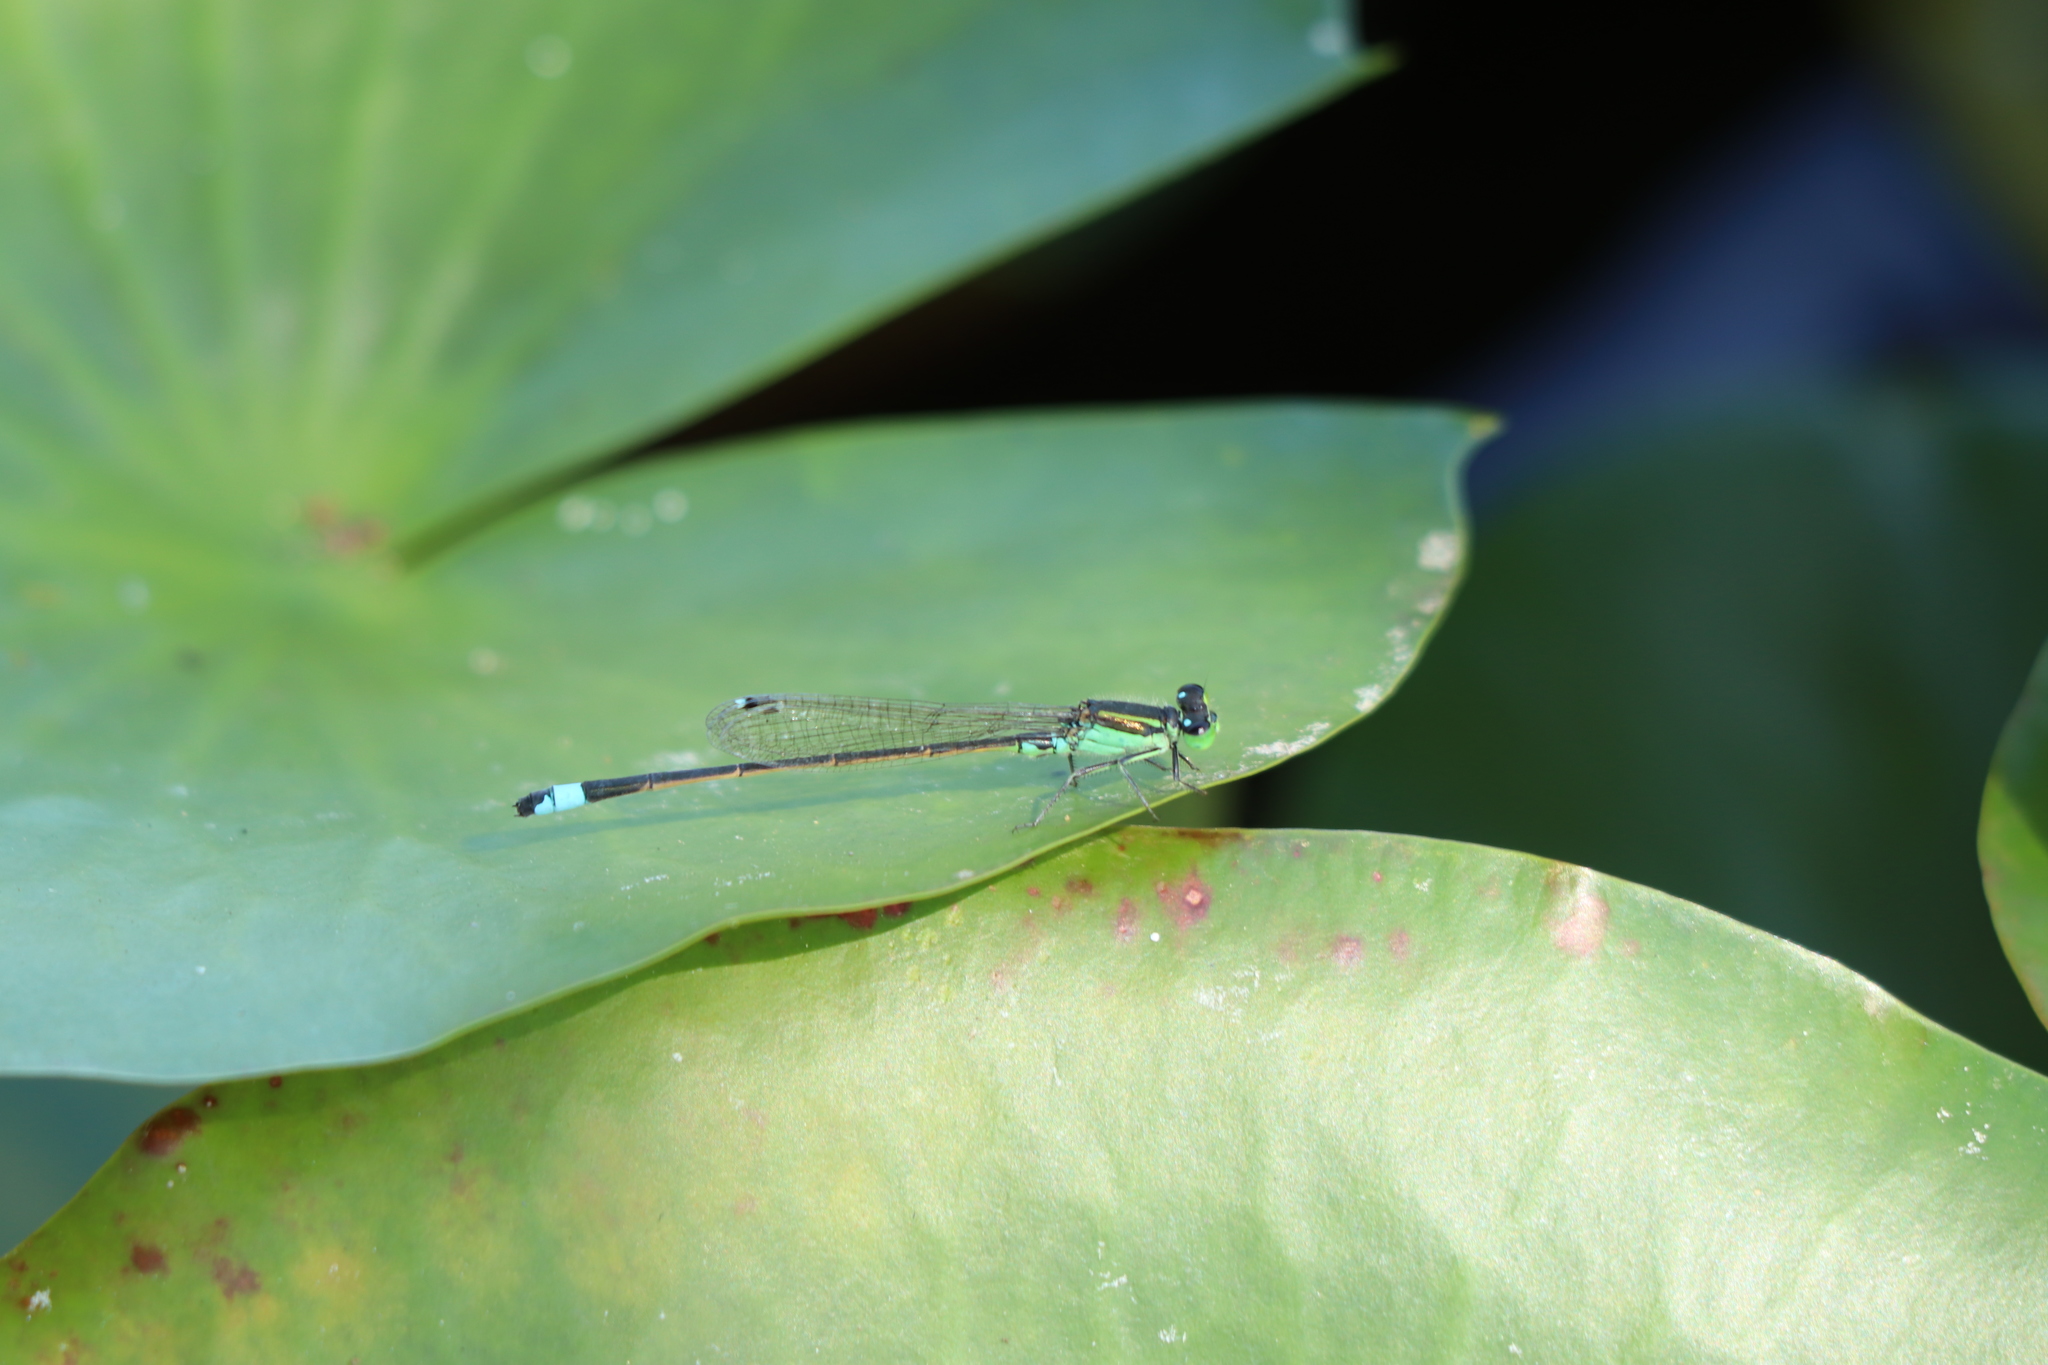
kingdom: Animalia
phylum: Arthropoda
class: Insecta
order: Odonata
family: Coenagrionidae
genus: Ischnura
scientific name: Ischnura senegalensis
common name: Tropical bluetail
